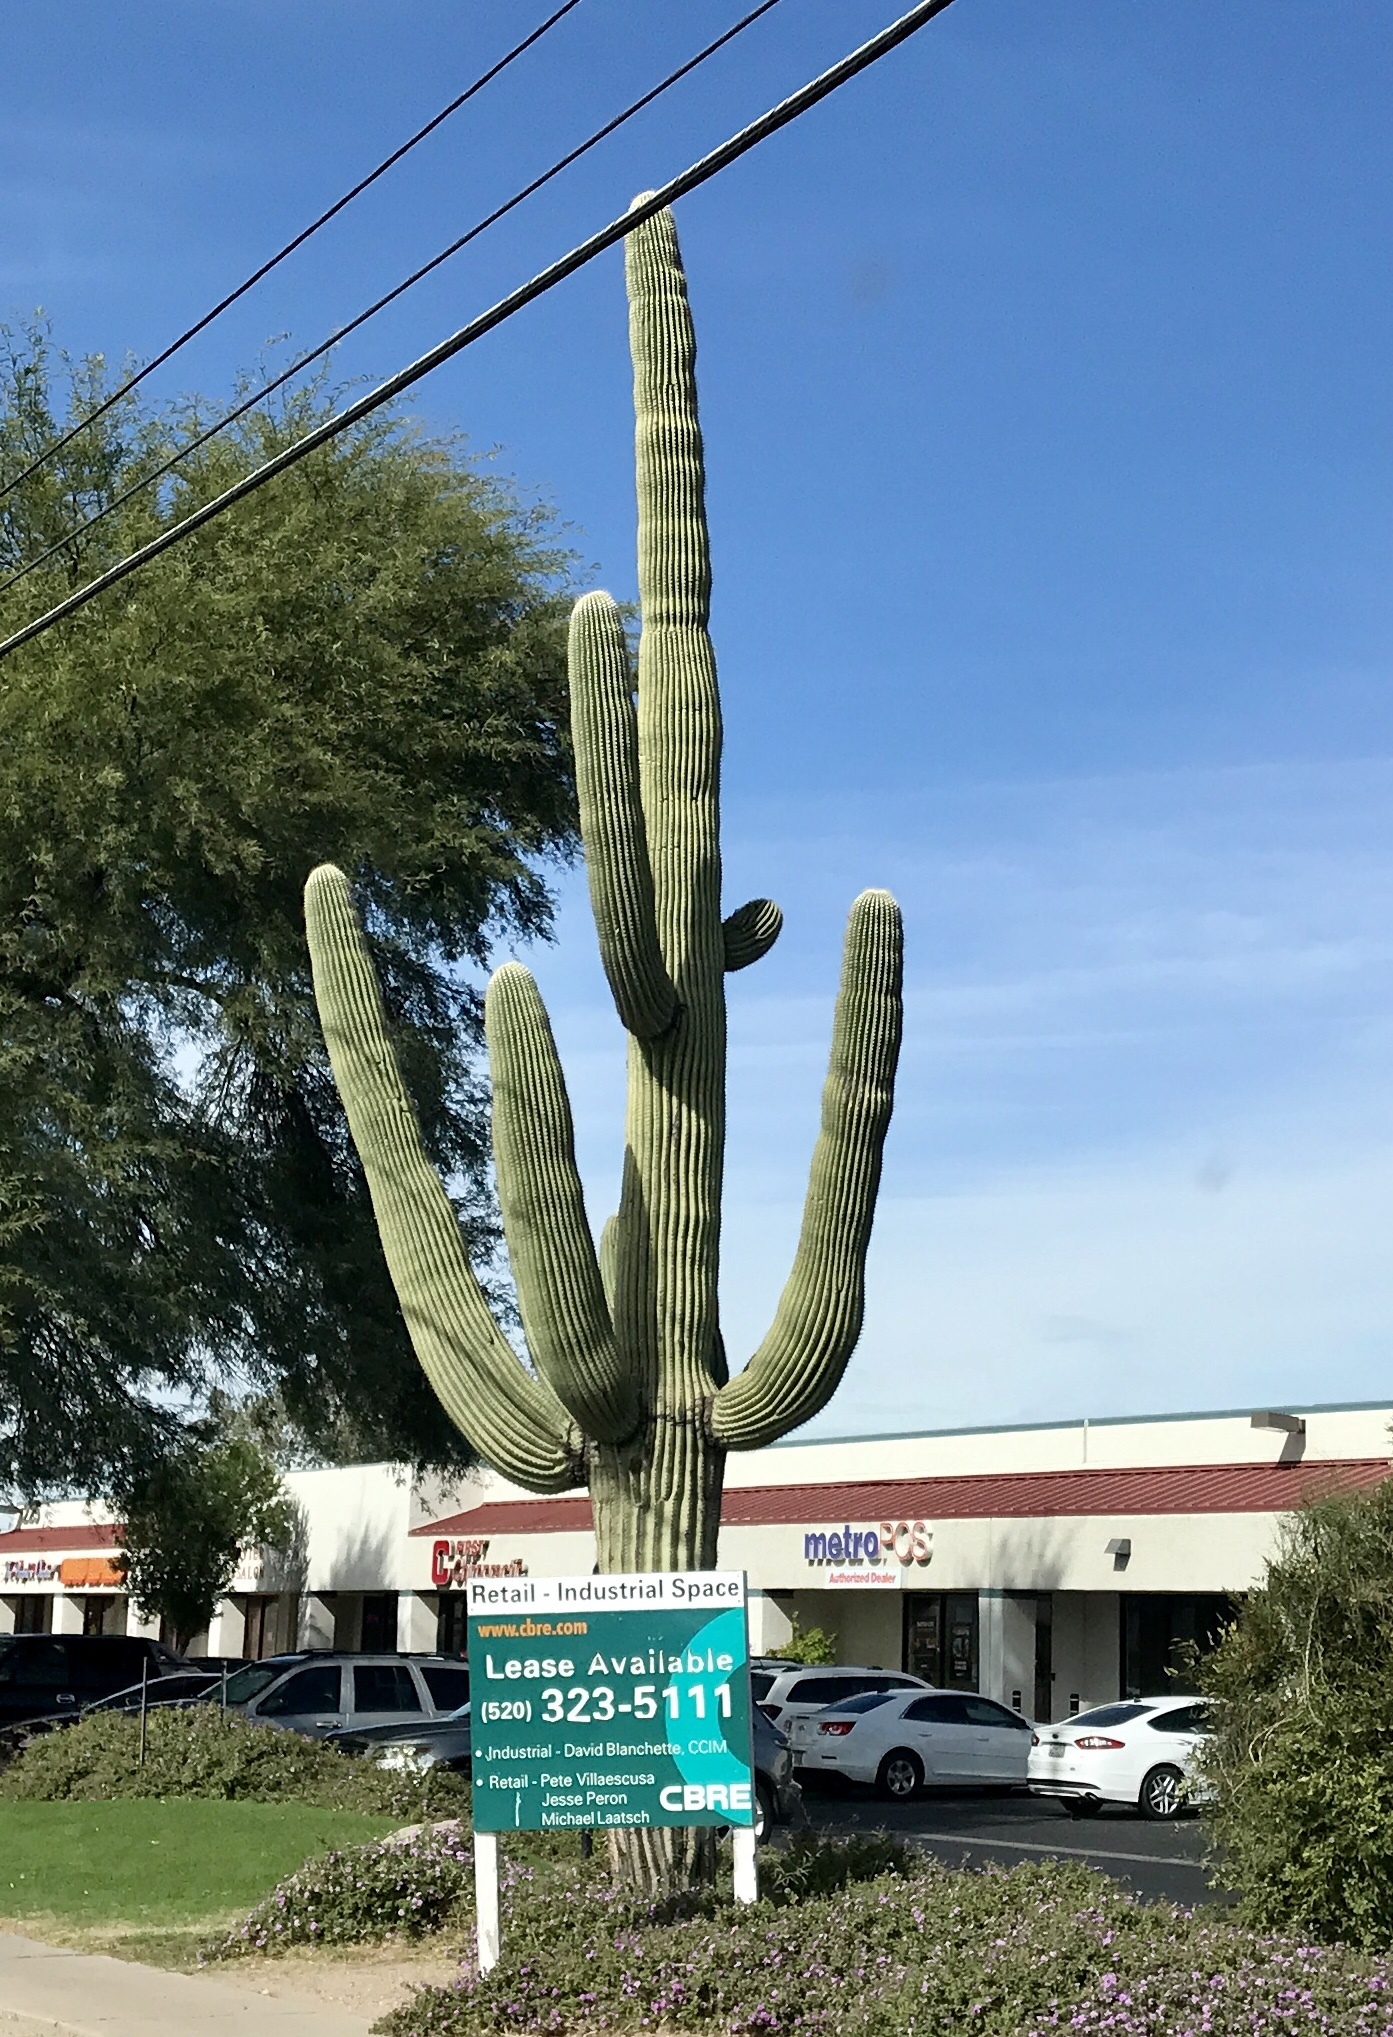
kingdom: Plantae
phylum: Tracheophyta
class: Magnoliopsida
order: Caryophyllales
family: Cactaceae
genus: Carnegiea
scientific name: Carnegiea gigantea
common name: Saguaro
